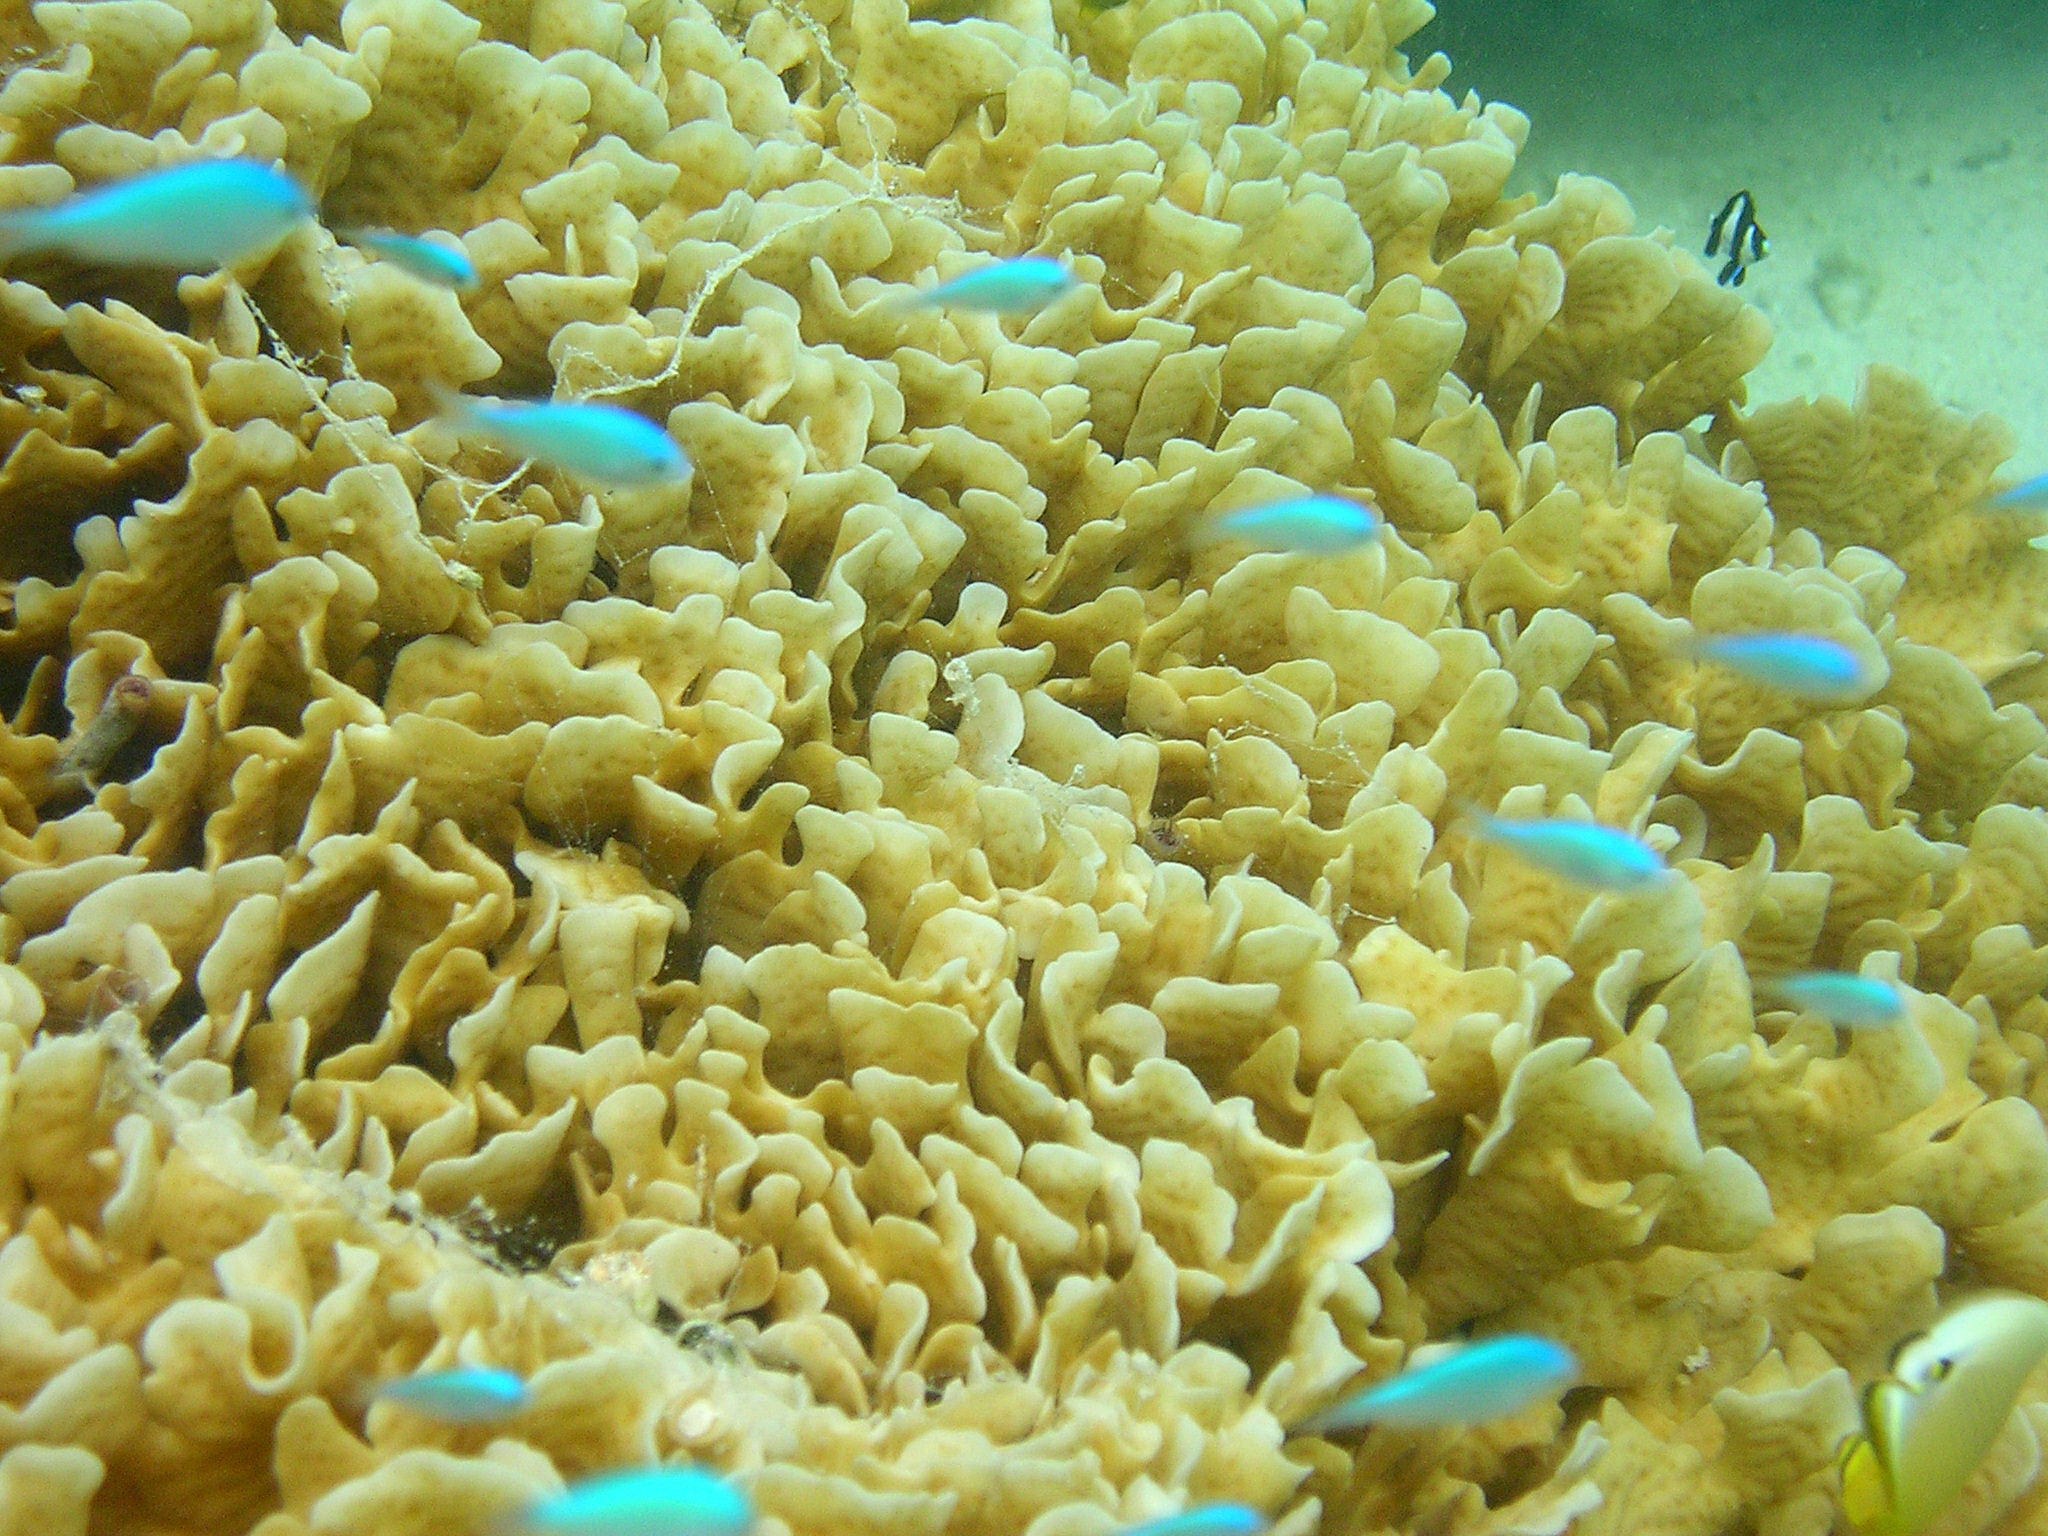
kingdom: Animalia
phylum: Chordata
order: Perciformes
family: Pomacentridae
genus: Chromis
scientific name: Chromis viridis
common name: Blue-green chromis
